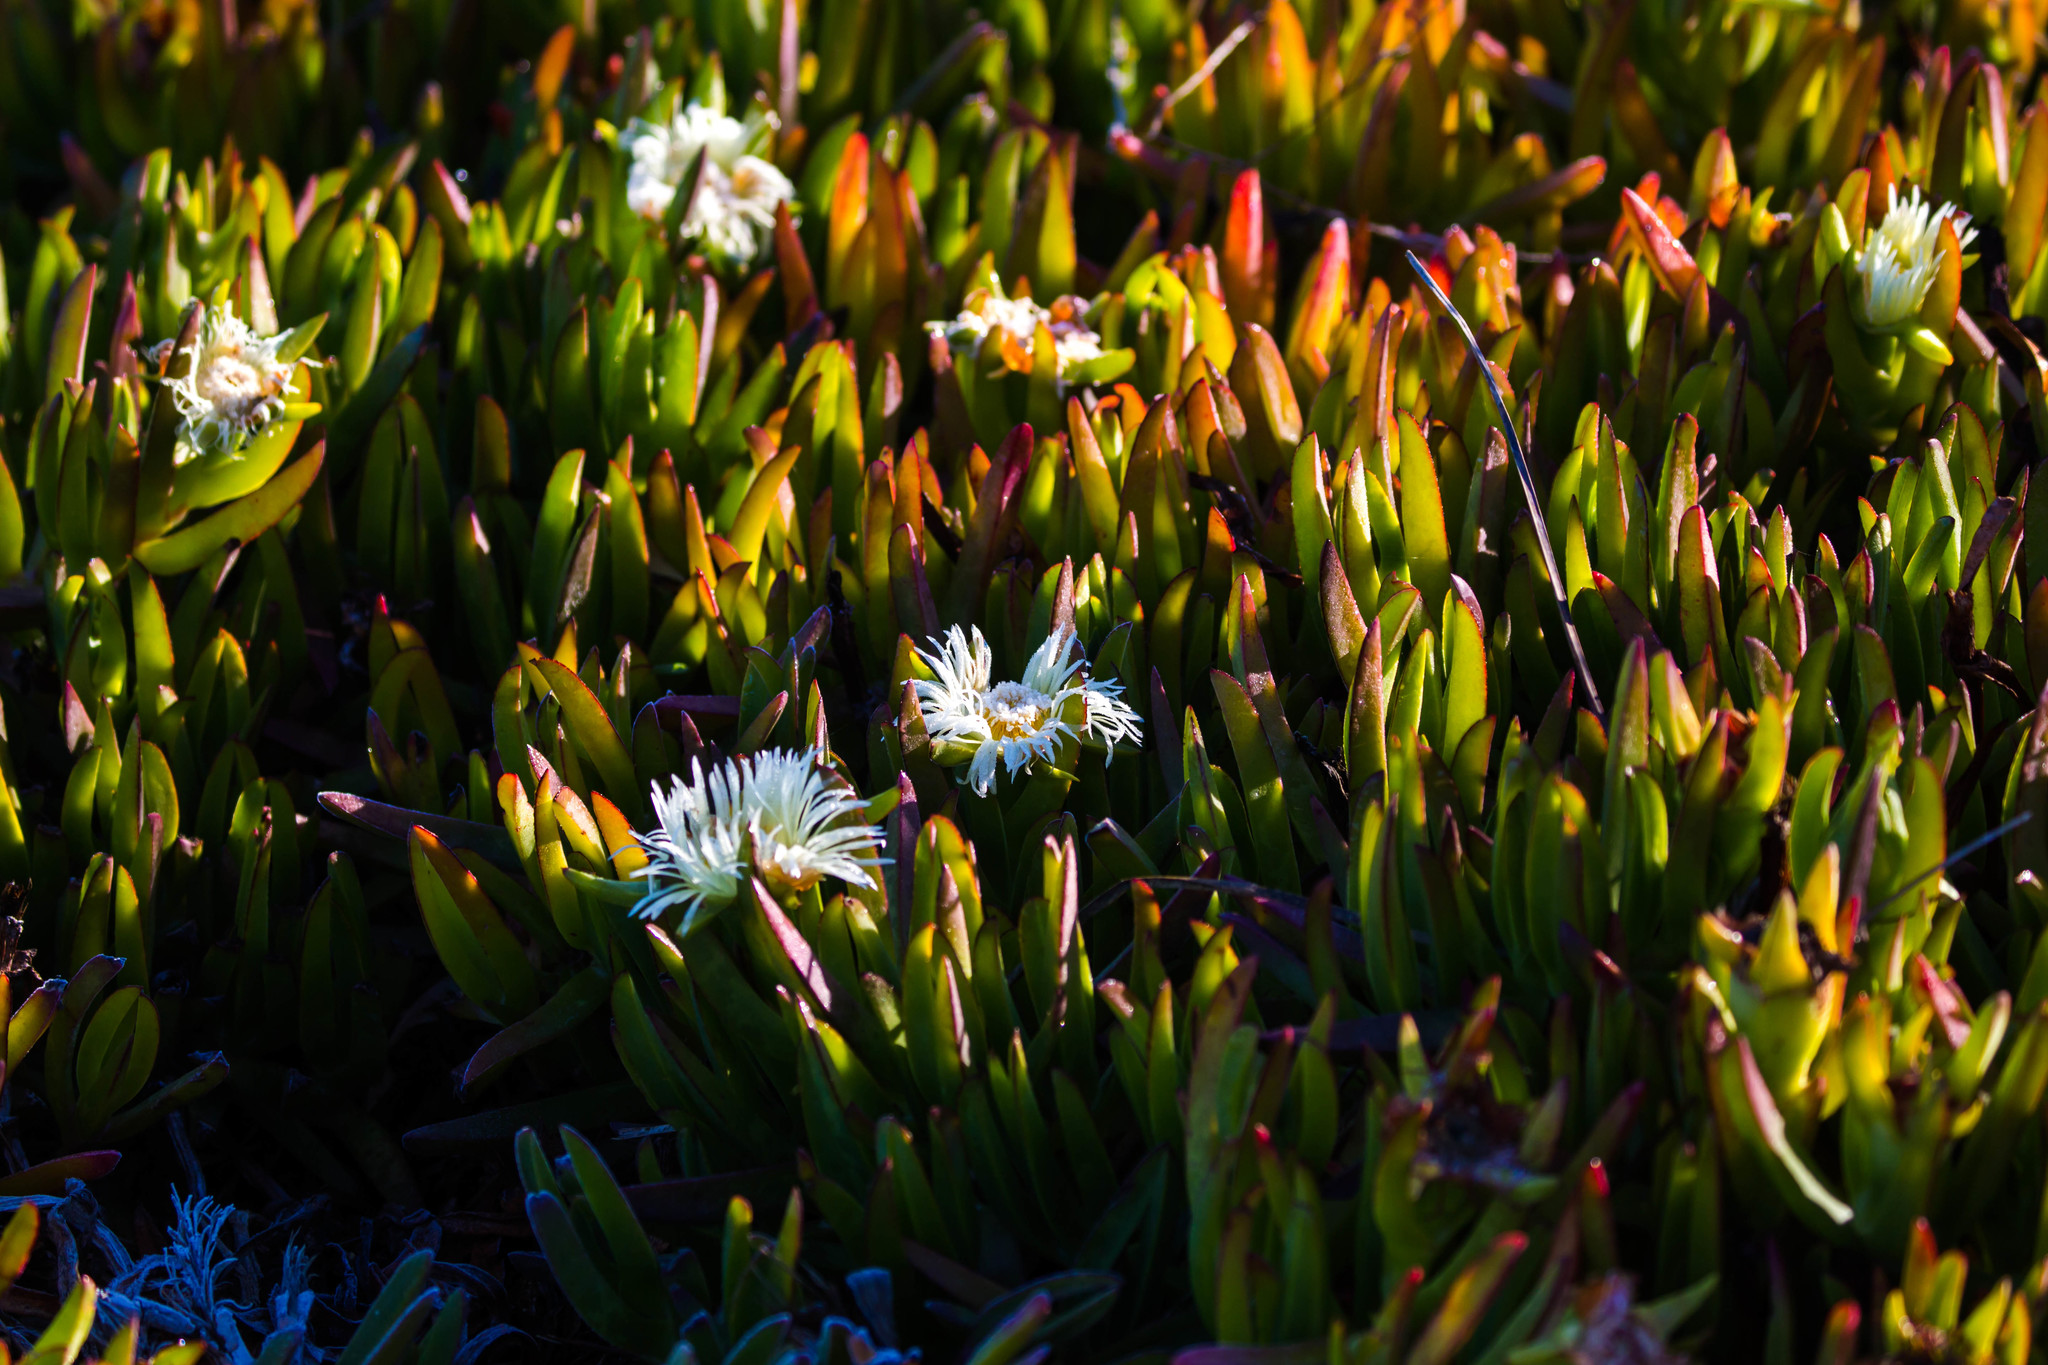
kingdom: Plantae
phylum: Tracheophyta
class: Magnoliopsida
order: Caryophyllales
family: Aizoaceae
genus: Carpobrotus
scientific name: Carpobrotus edulis
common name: Hottentot-fig
